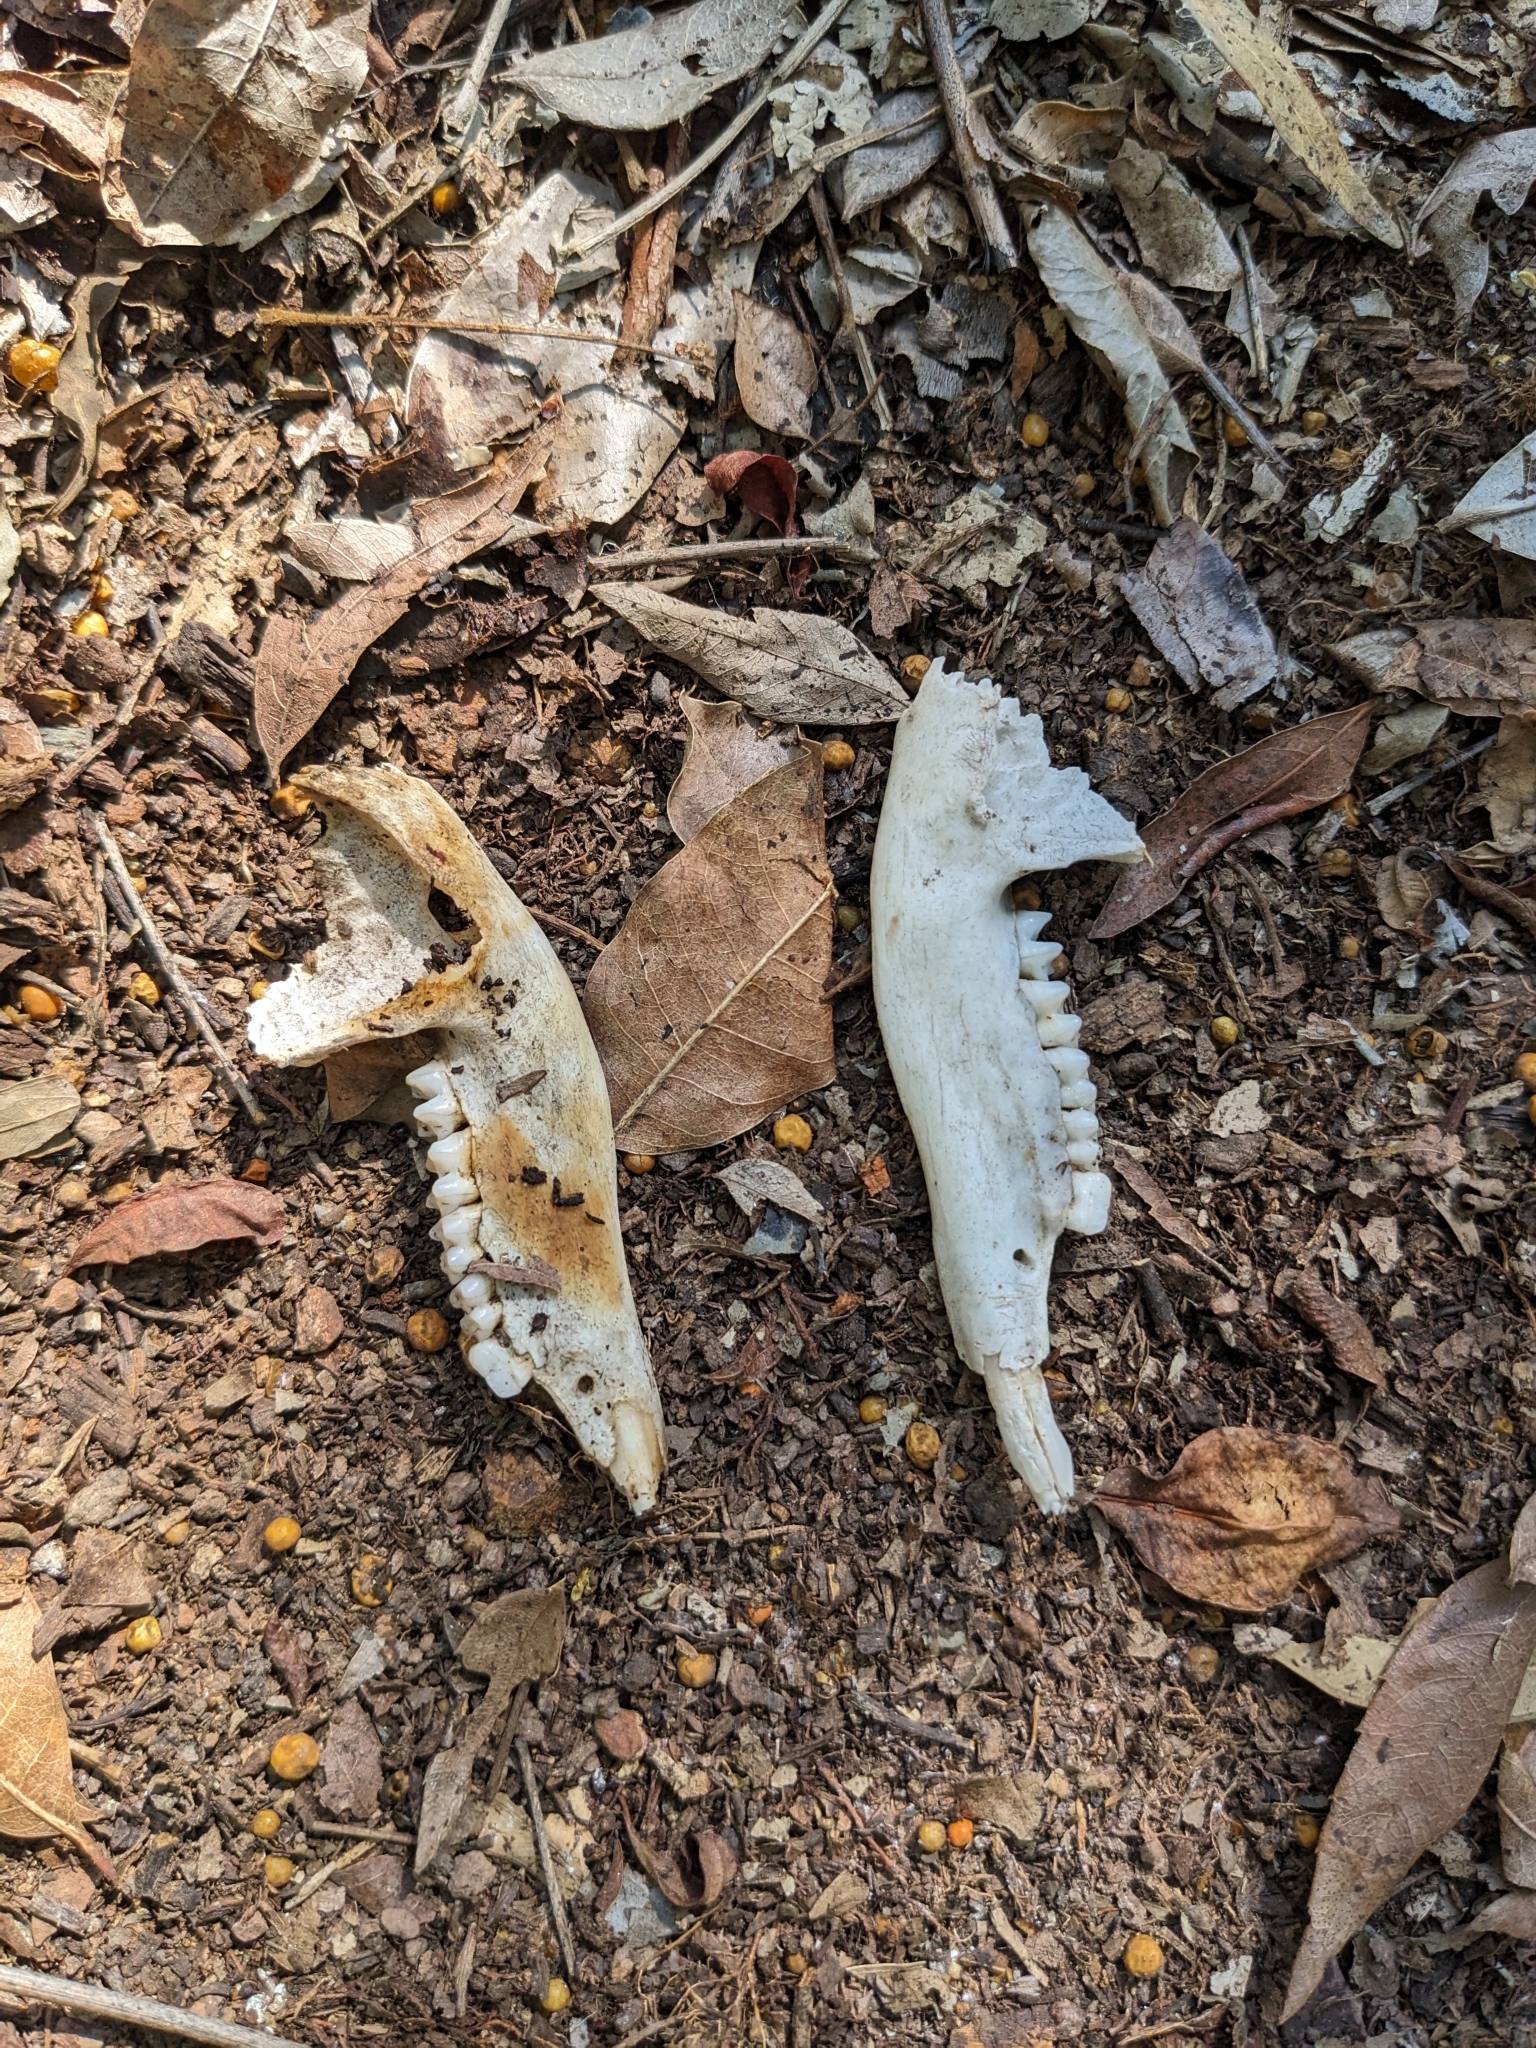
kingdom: Animalia
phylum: Chordata
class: Mammalia
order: Diprotodontia
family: Macropodidae
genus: Wallabia
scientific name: Wallabia bicolor
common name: Swamp wallaby
